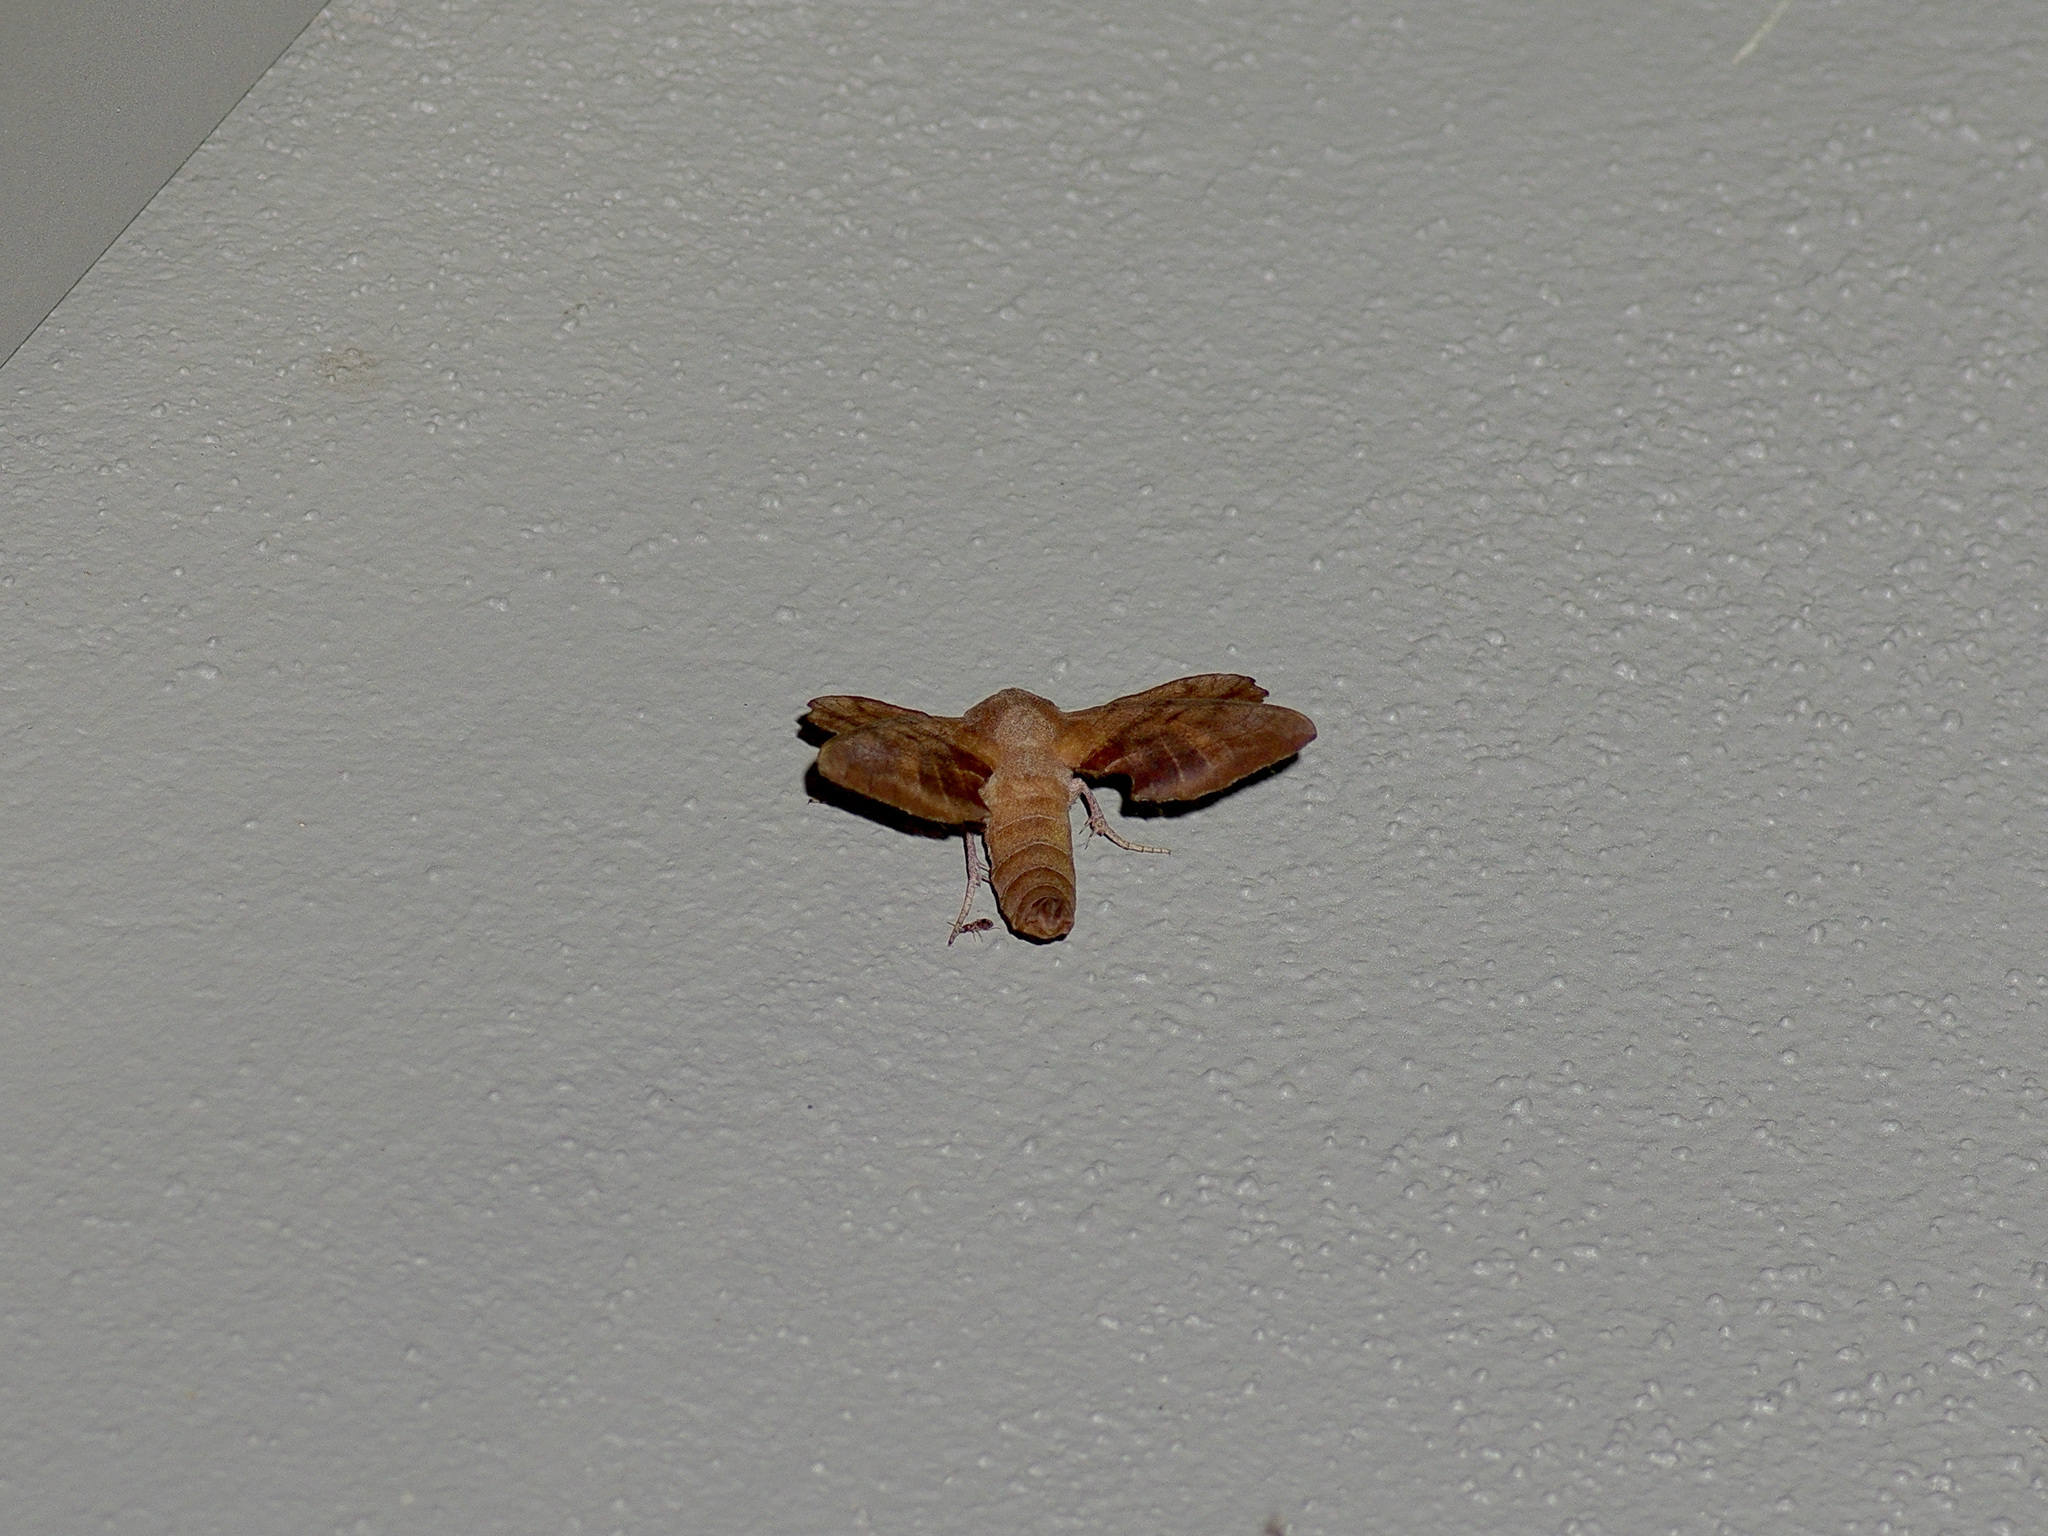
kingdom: Animalia
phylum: Arthropoda
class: Insecta
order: Lepidoptera
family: Sphingidae
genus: Amorpha
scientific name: Amorpha juglandis
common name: Walnut sphinx
